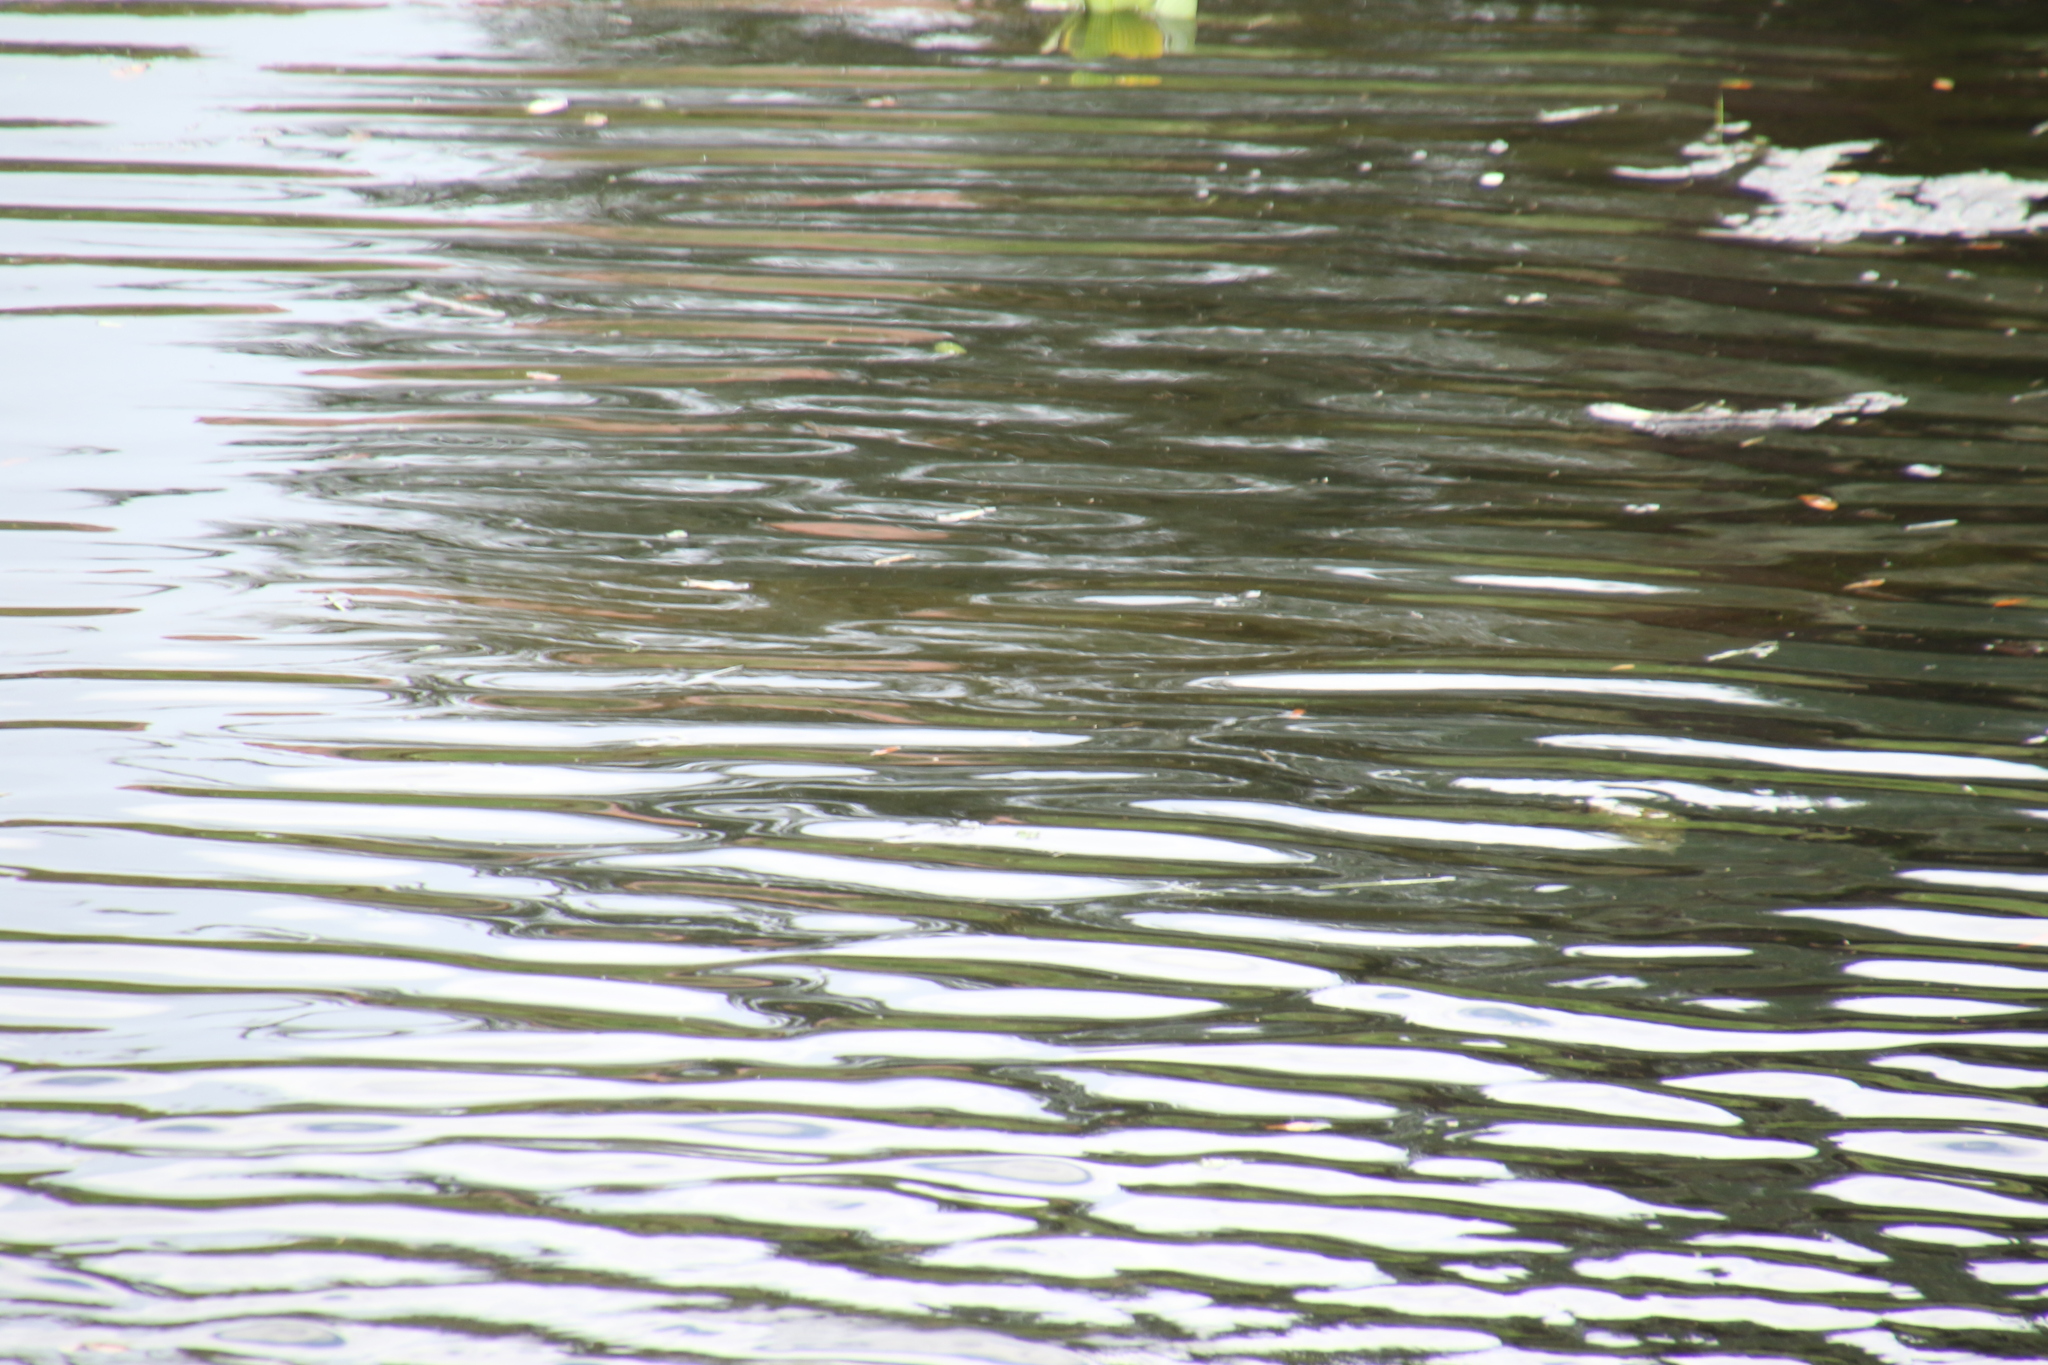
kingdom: Animalia
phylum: Chordata
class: Mammalia
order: Sirenia
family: Trichechidae
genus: Trichechus
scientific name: Trichechus manatus
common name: West indian manatee
